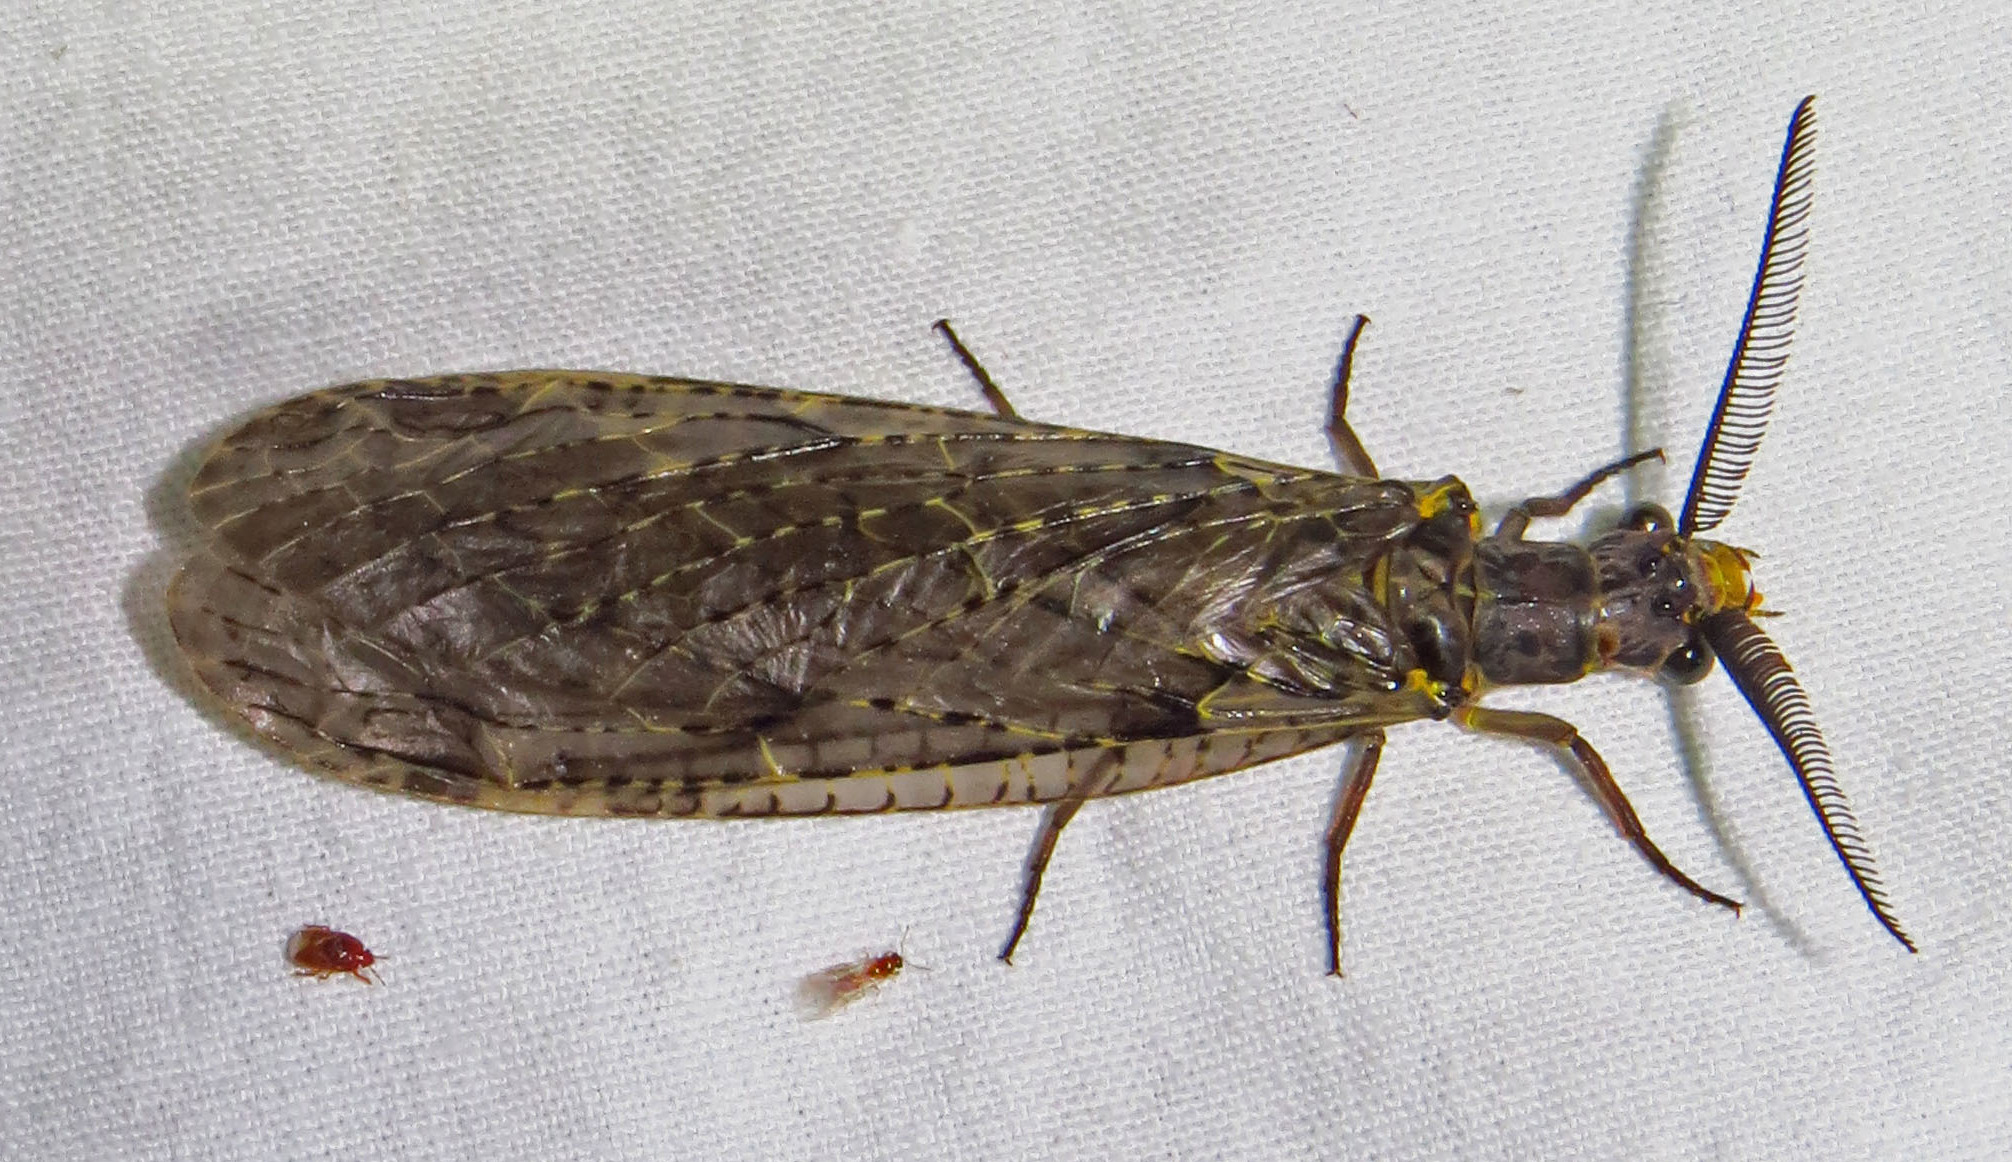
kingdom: Animalia
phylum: Arthropoda
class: Insecta
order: Megaloptera
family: Corydalidae
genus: Chauliodes
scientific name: Chauliodes rastricornis
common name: Spring fishfly
